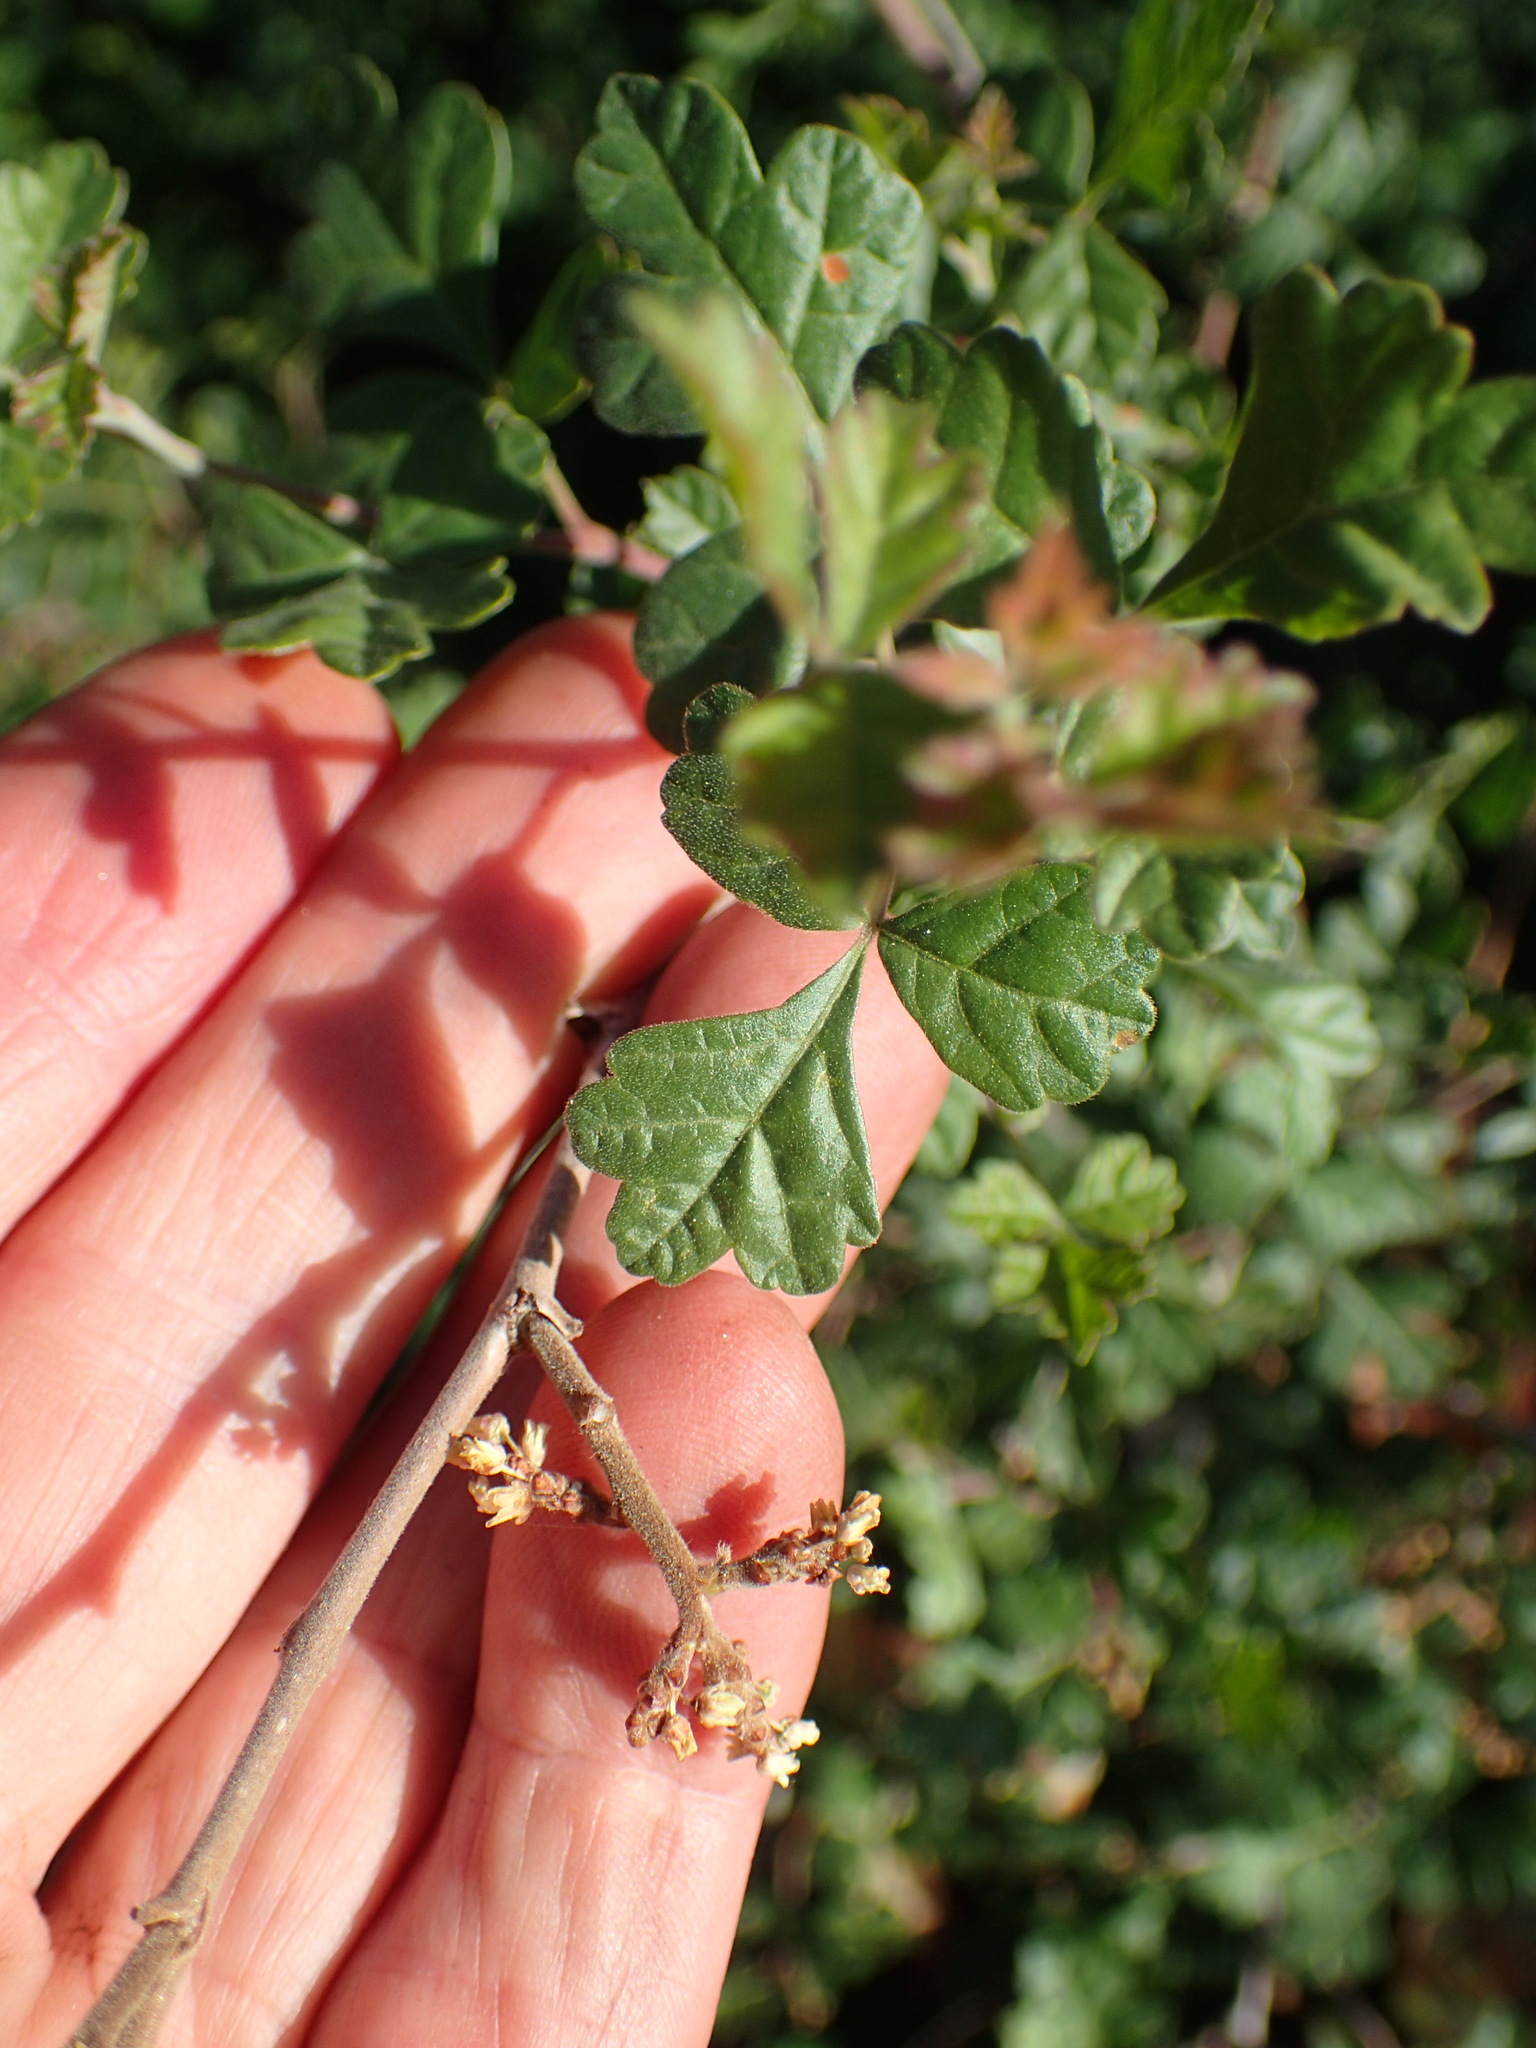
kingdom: Plantae
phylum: Tracheophyta
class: Magnoliopsida
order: Sapindales
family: Anacardiaceae
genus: Rhus
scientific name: Rhus aromatica
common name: Aromatic sumac
